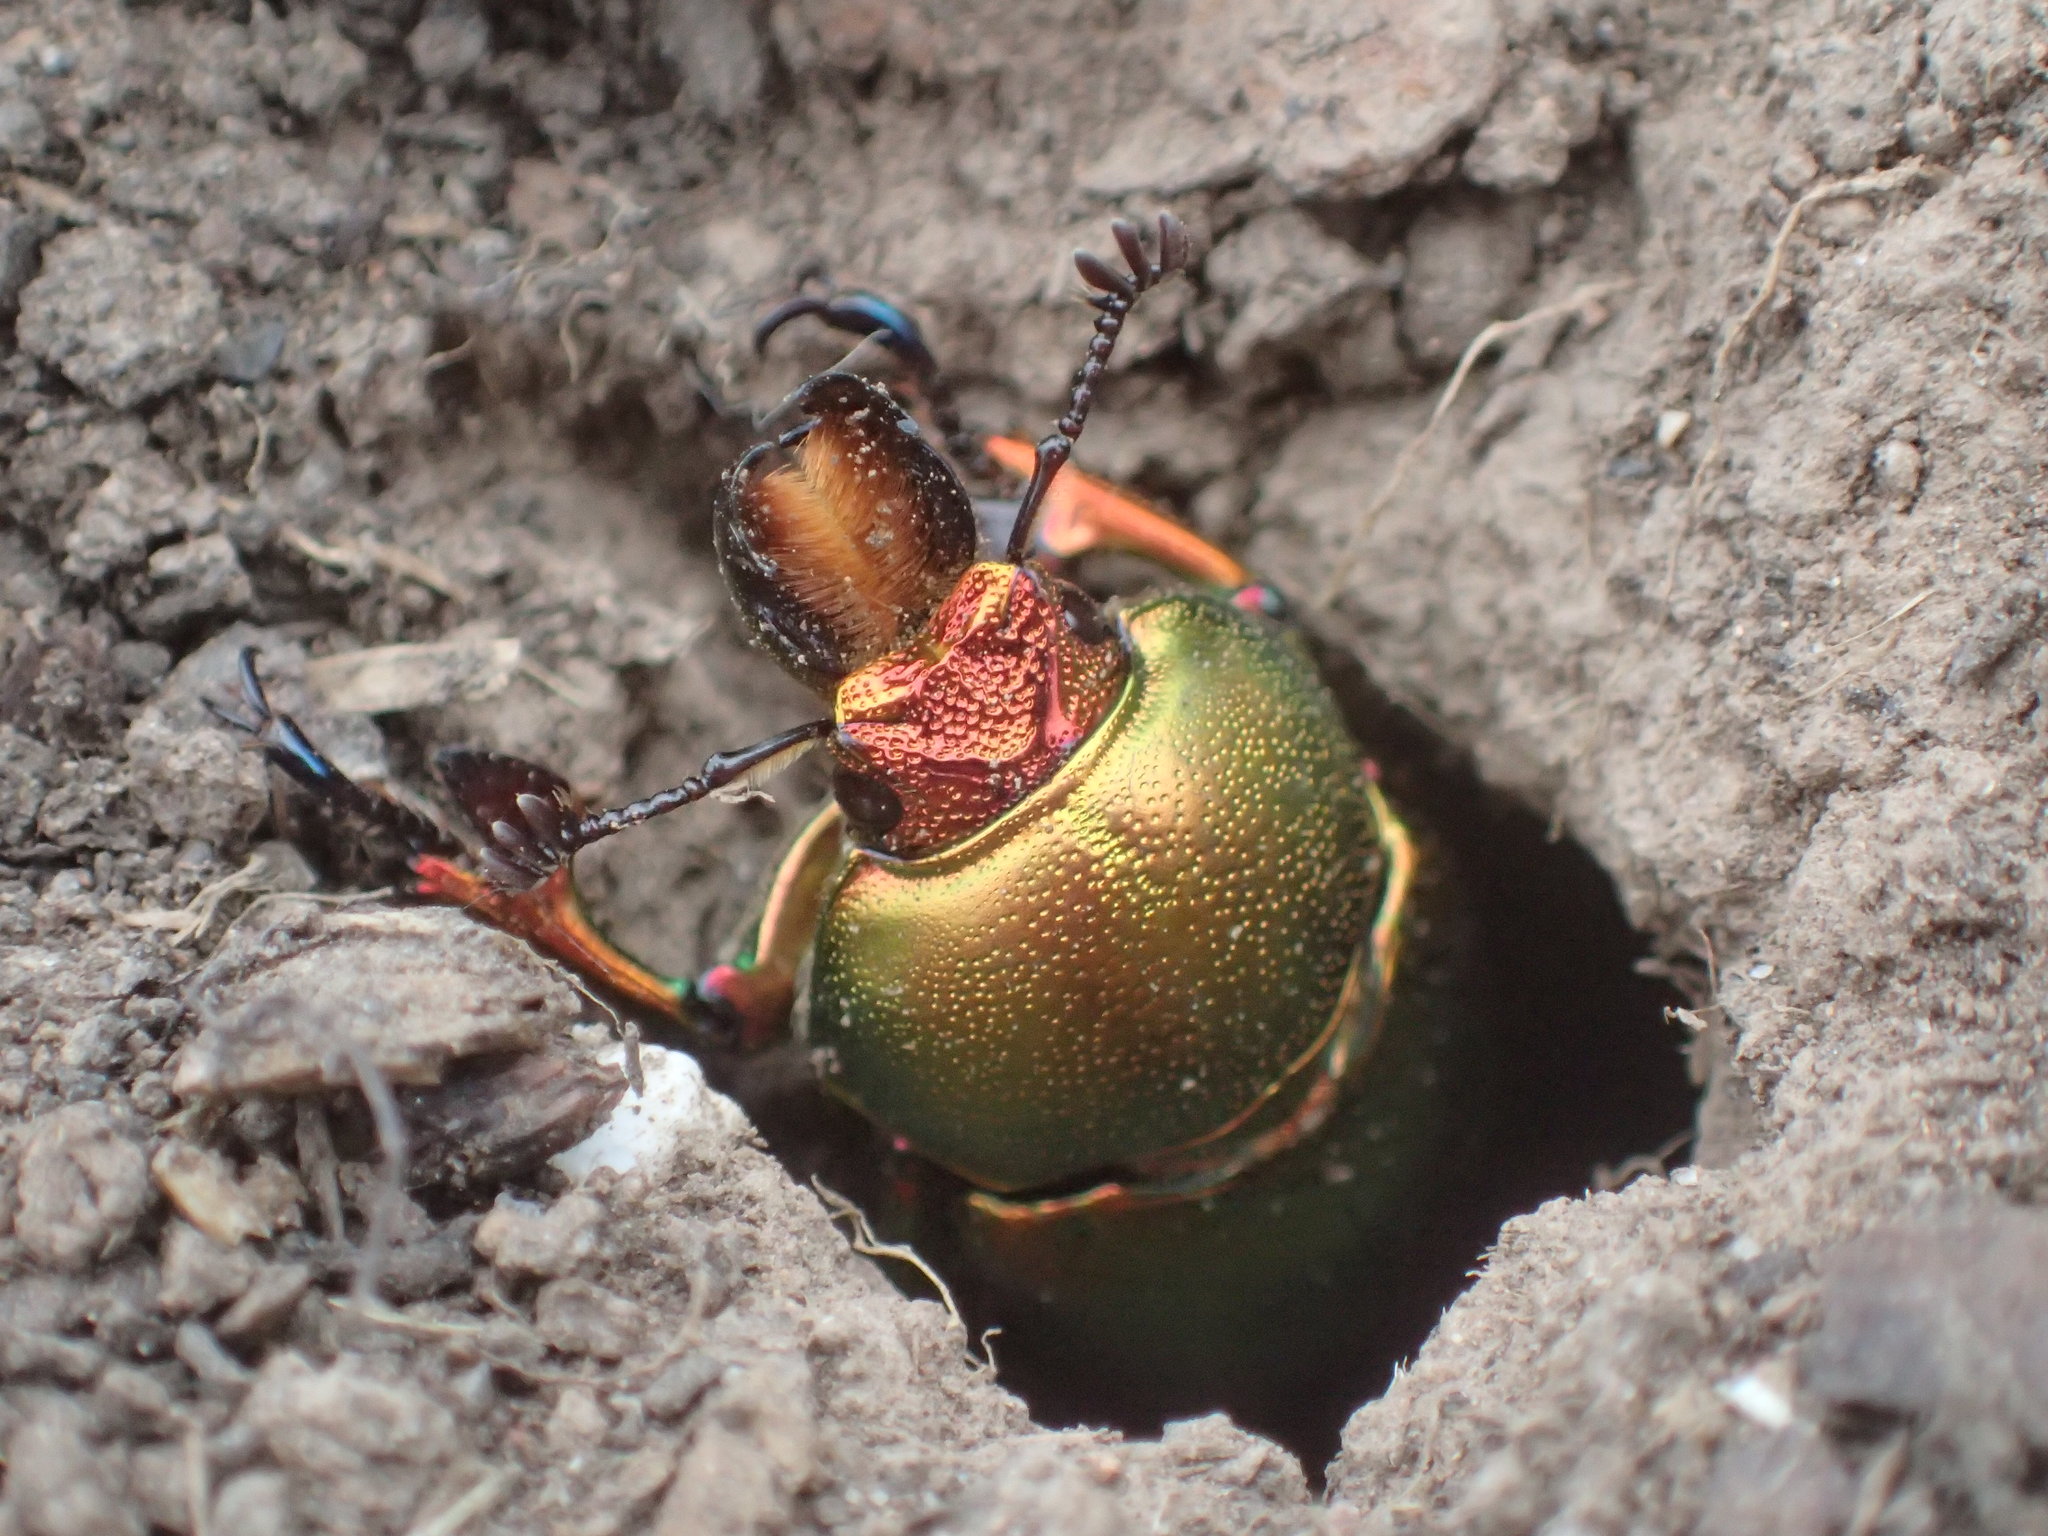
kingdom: Animalia
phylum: Arthropoda
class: Insecta
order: Coleoptera
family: Lucanidae
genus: Lamprima
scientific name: Lamprima aurata
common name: Golden stag beetle
